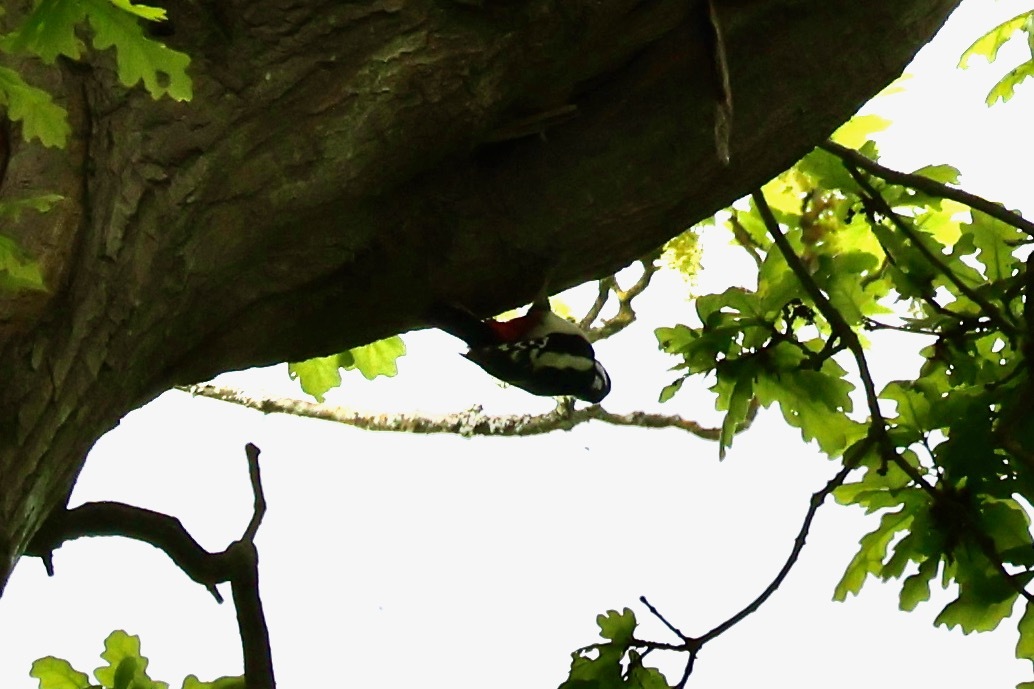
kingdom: Animalia
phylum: Chordata
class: Aves
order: Piciformes
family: Picidae
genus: Dendrocopos
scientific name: Dendrocopos major
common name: Great spotted woodpecker
